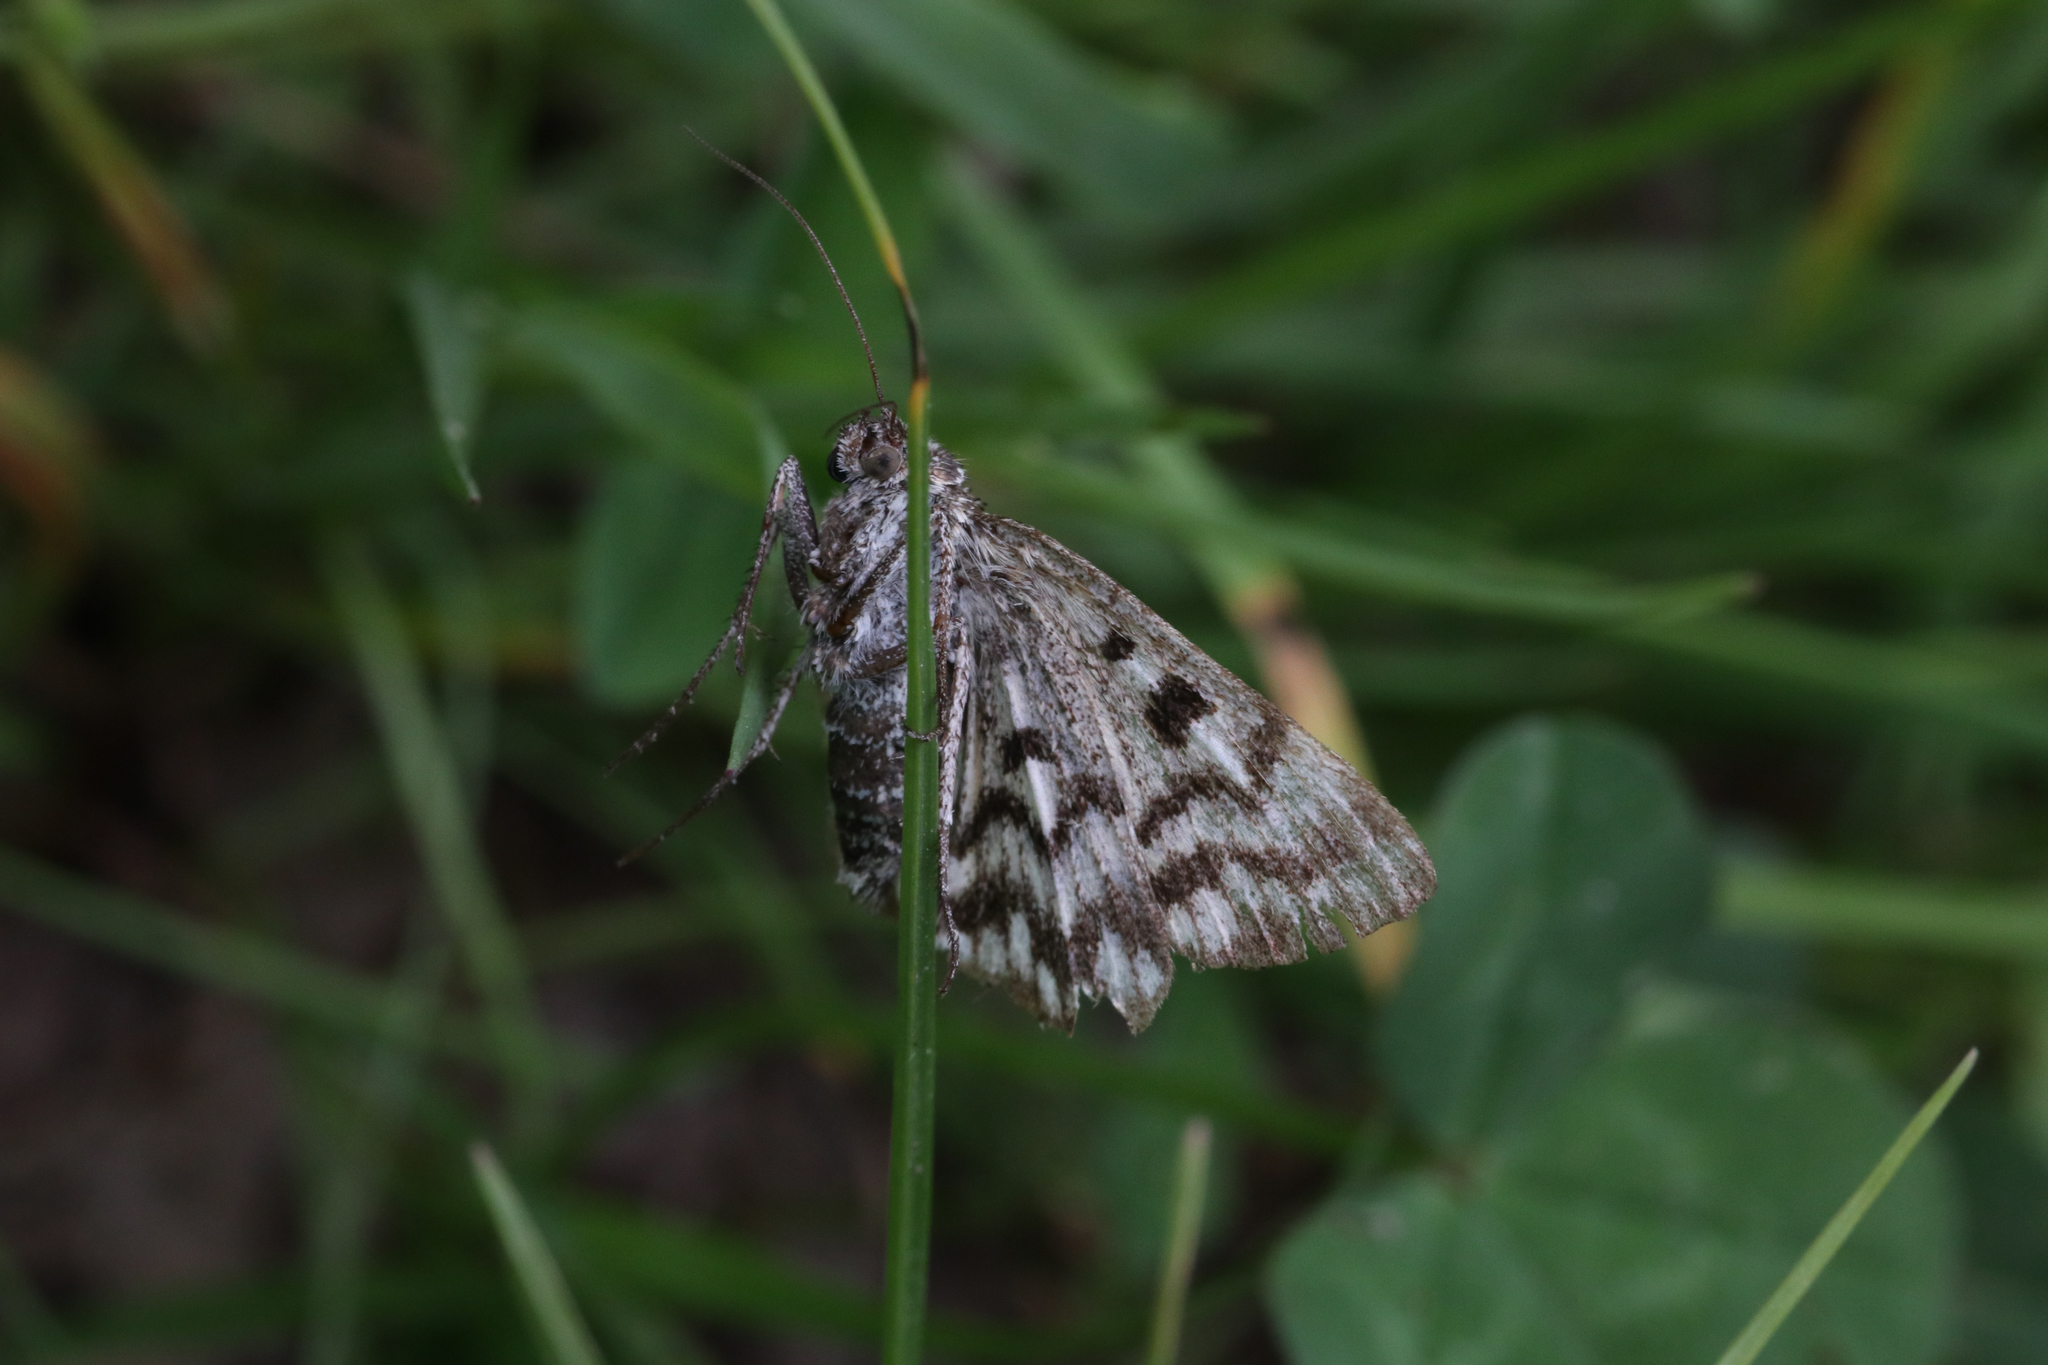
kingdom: Animalia
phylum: Arthropoda
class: Insecta
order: Lepidoptera
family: Erebidae
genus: Callistege
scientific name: Callistege mi
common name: Mother shipton
